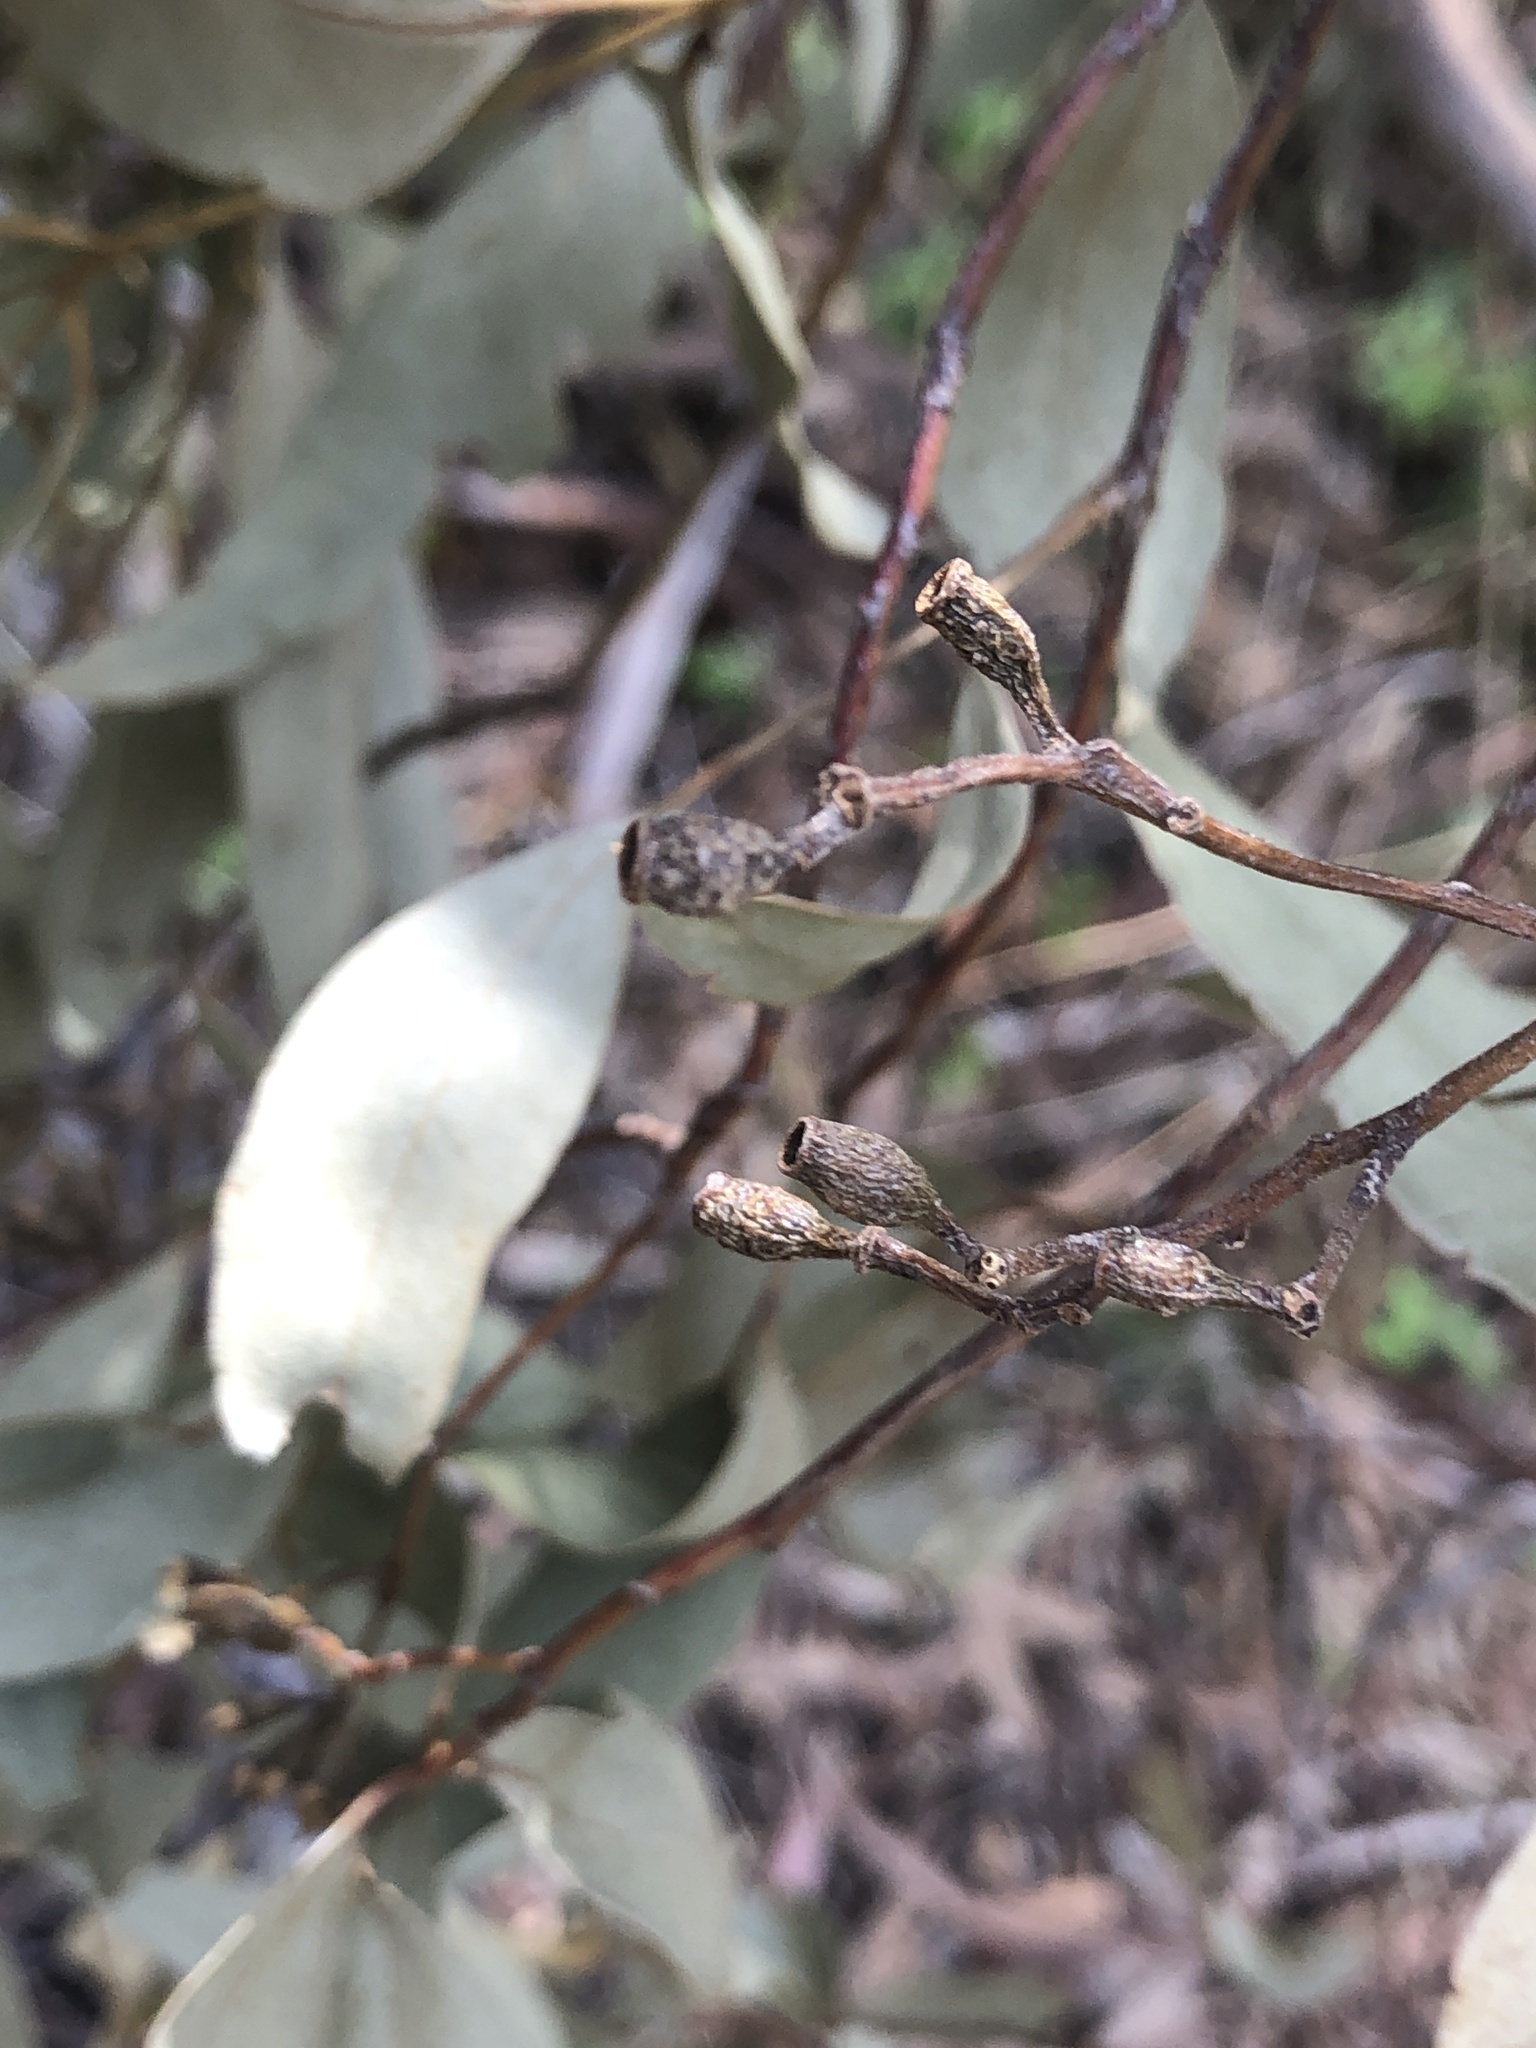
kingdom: Plantae
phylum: Tracheophyta
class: Magnoliopsida
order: Myrtales
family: Myrtaceae
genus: Eucalyptus
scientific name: Eucalyptus microcarpa
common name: Grey-box
